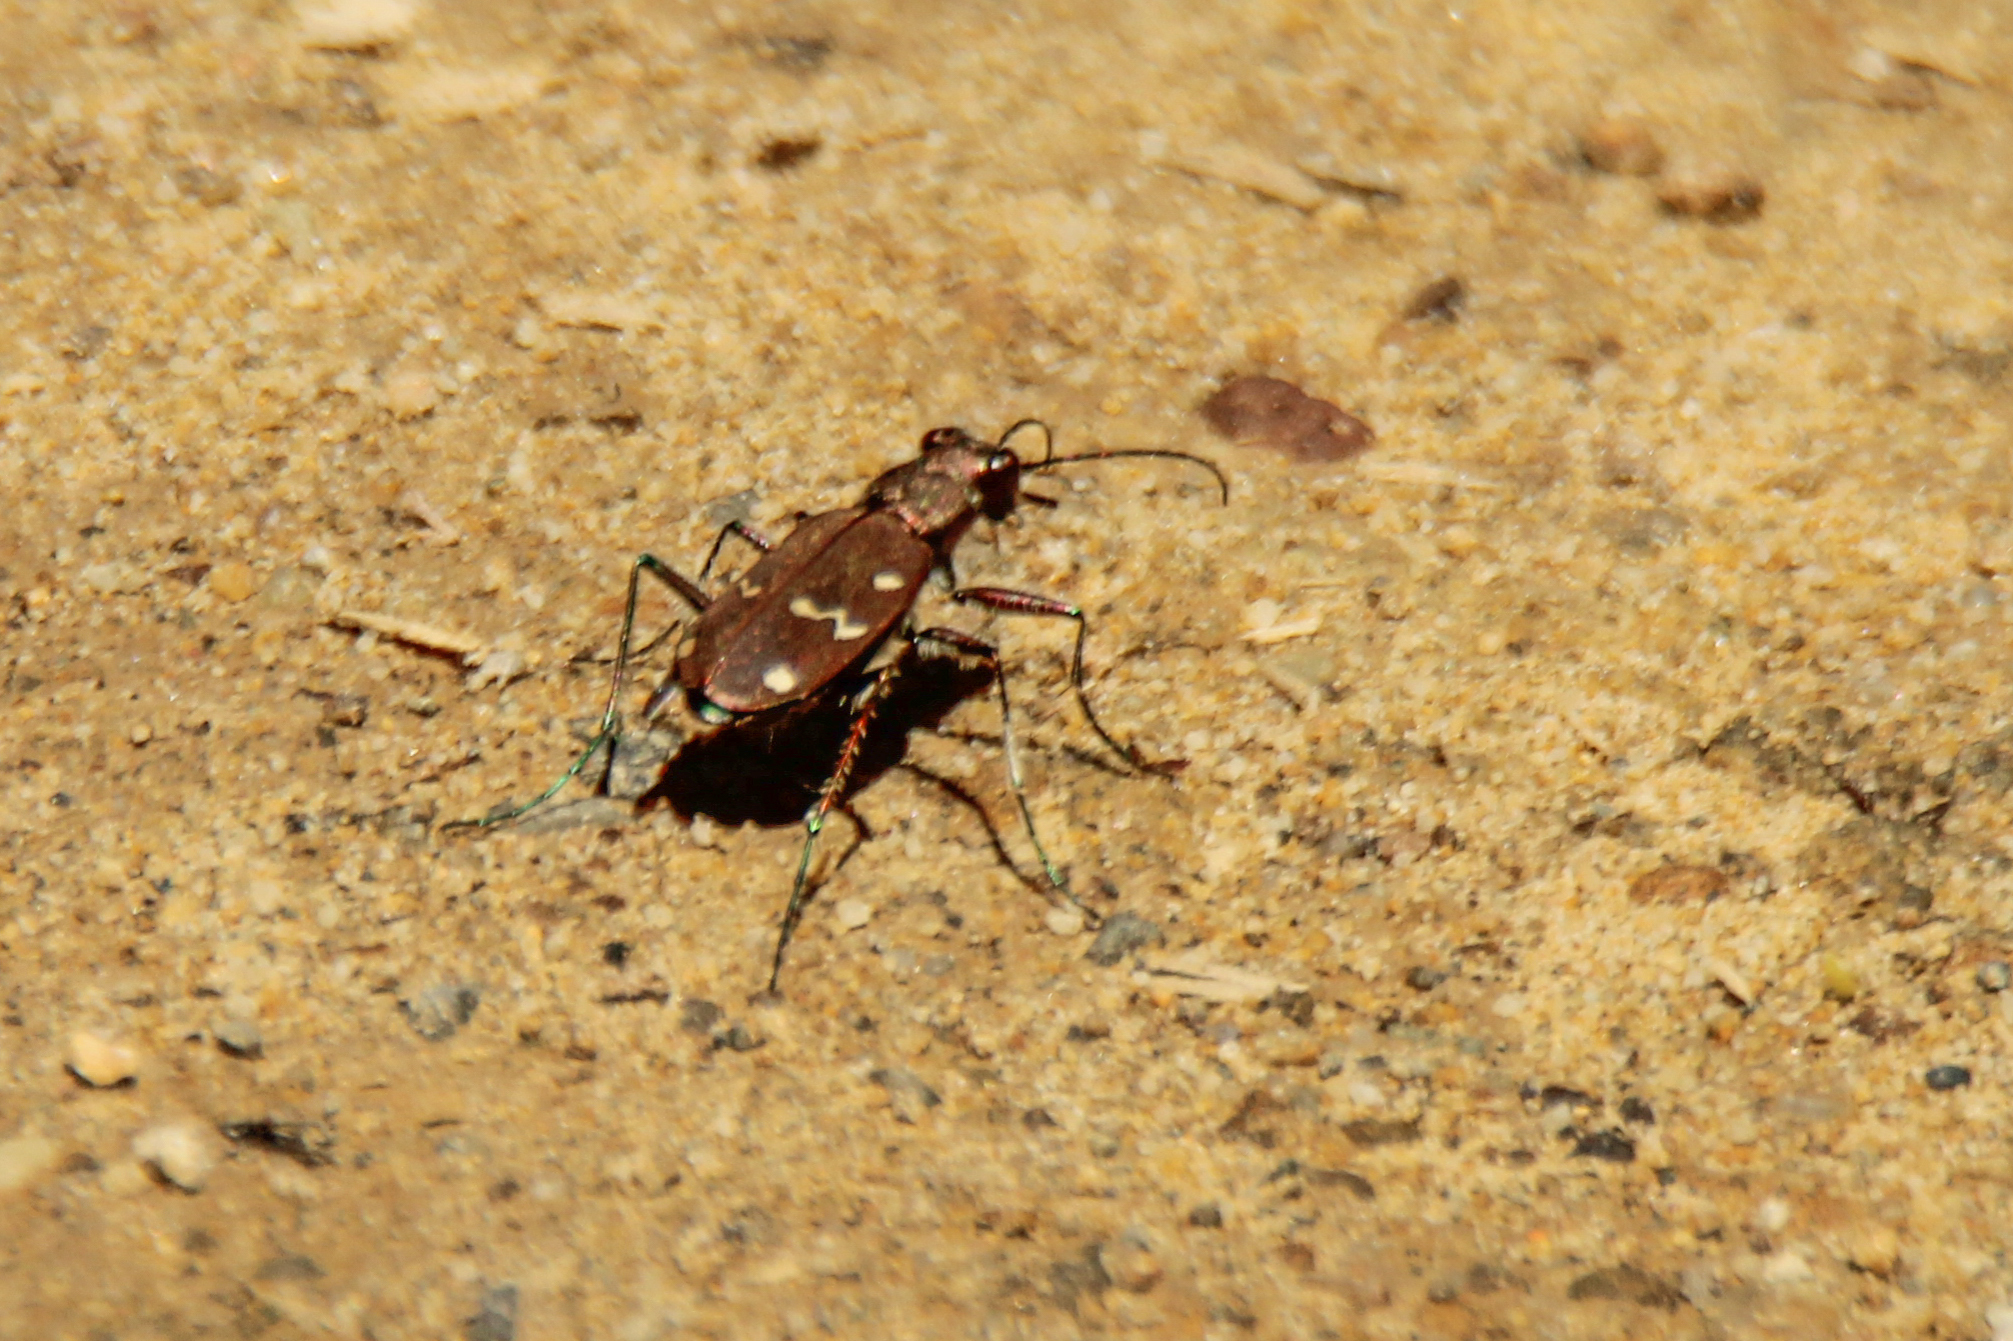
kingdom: Animalia
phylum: Arthropoda
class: Insecta
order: Coleoptera
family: Carabidae
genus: Cicindela
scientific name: Cicindela gemmata
